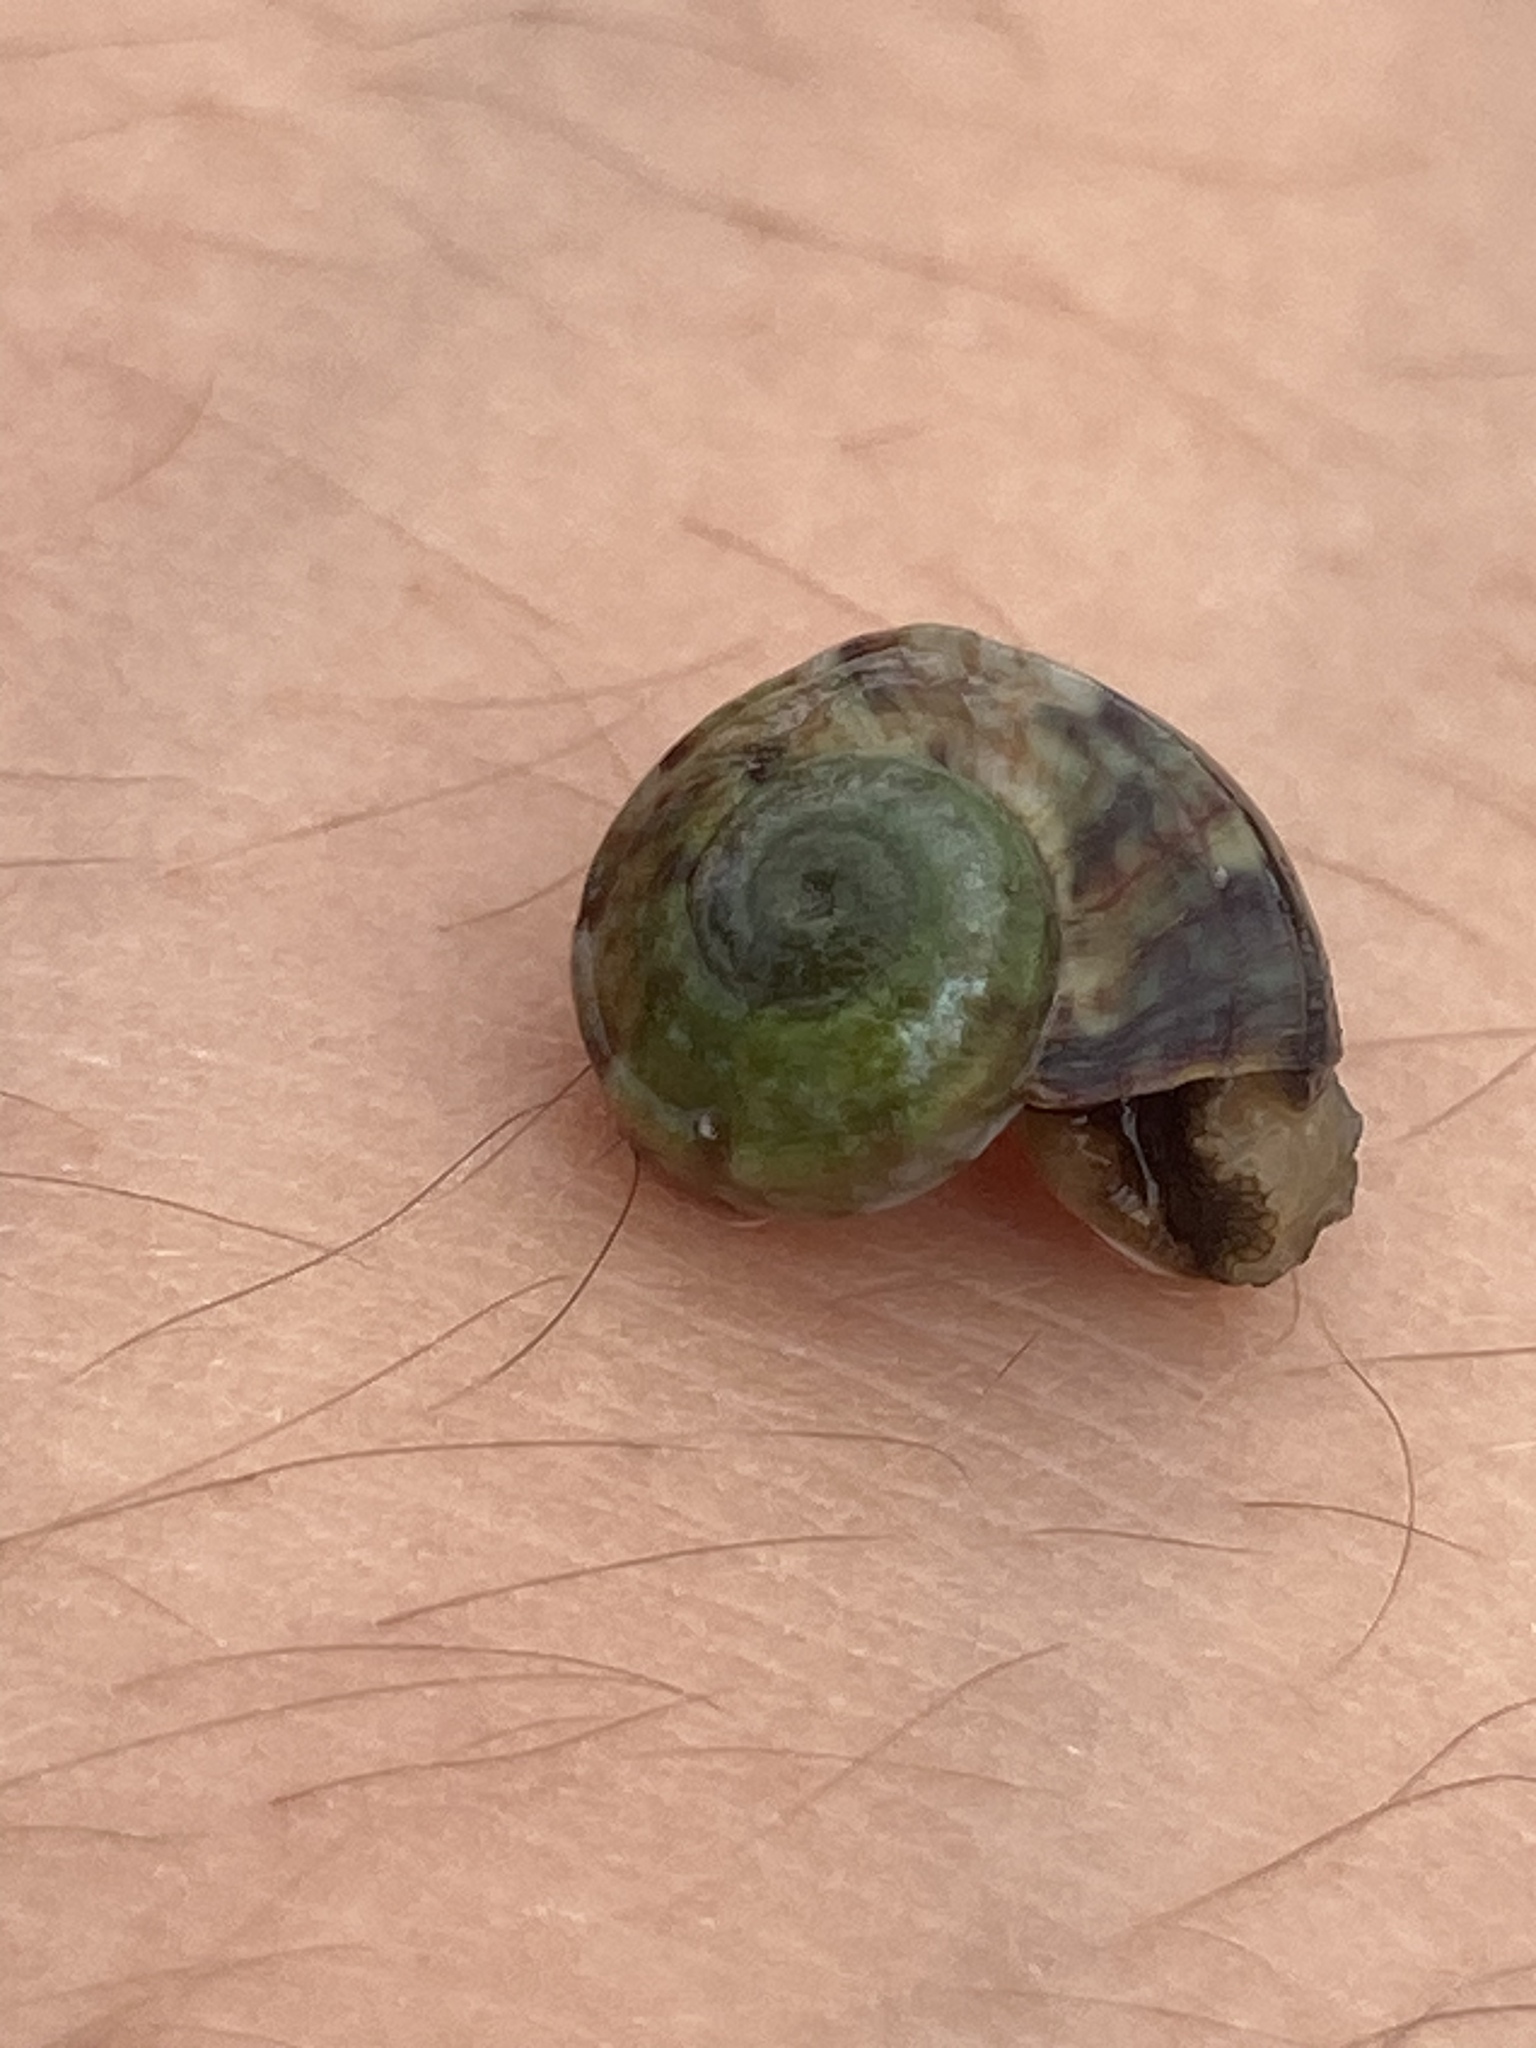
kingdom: Animalia
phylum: Mollusca
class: Gastropoda
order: Trochida
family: Turbinidae
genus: Lunella
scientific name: Lunella undulata
